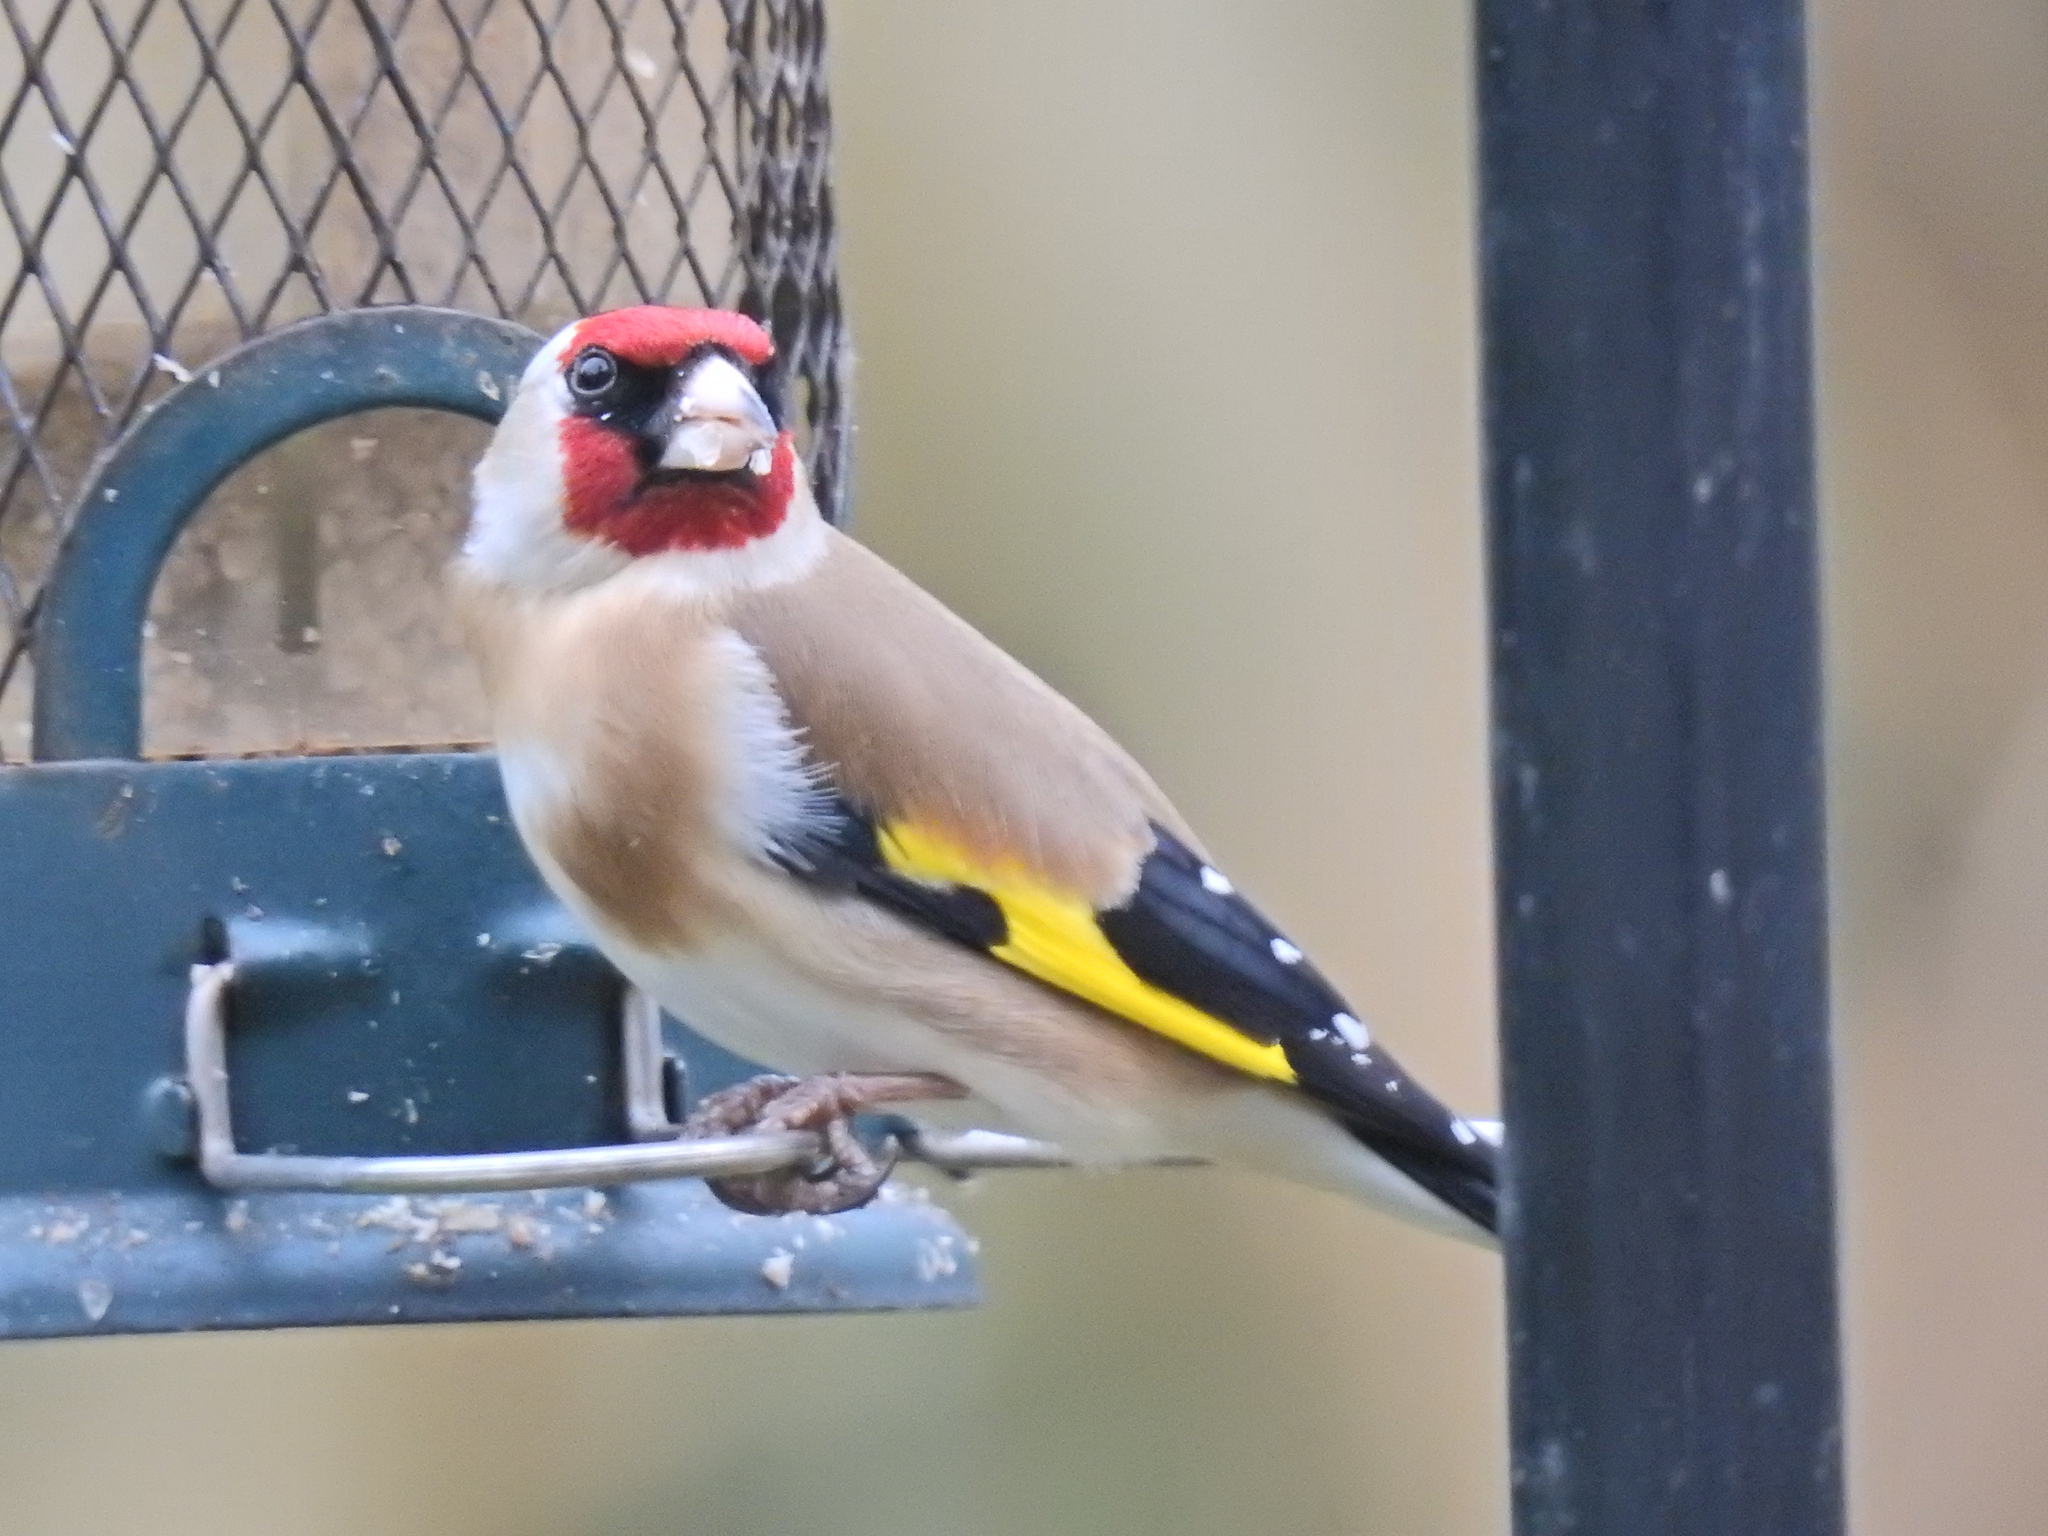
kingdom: Animalia
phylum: Chordata
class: Aves
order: Passeriformes
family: Fringillidae
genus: Carduelis
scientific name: Carduelis carduelis
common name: European goldfinch
